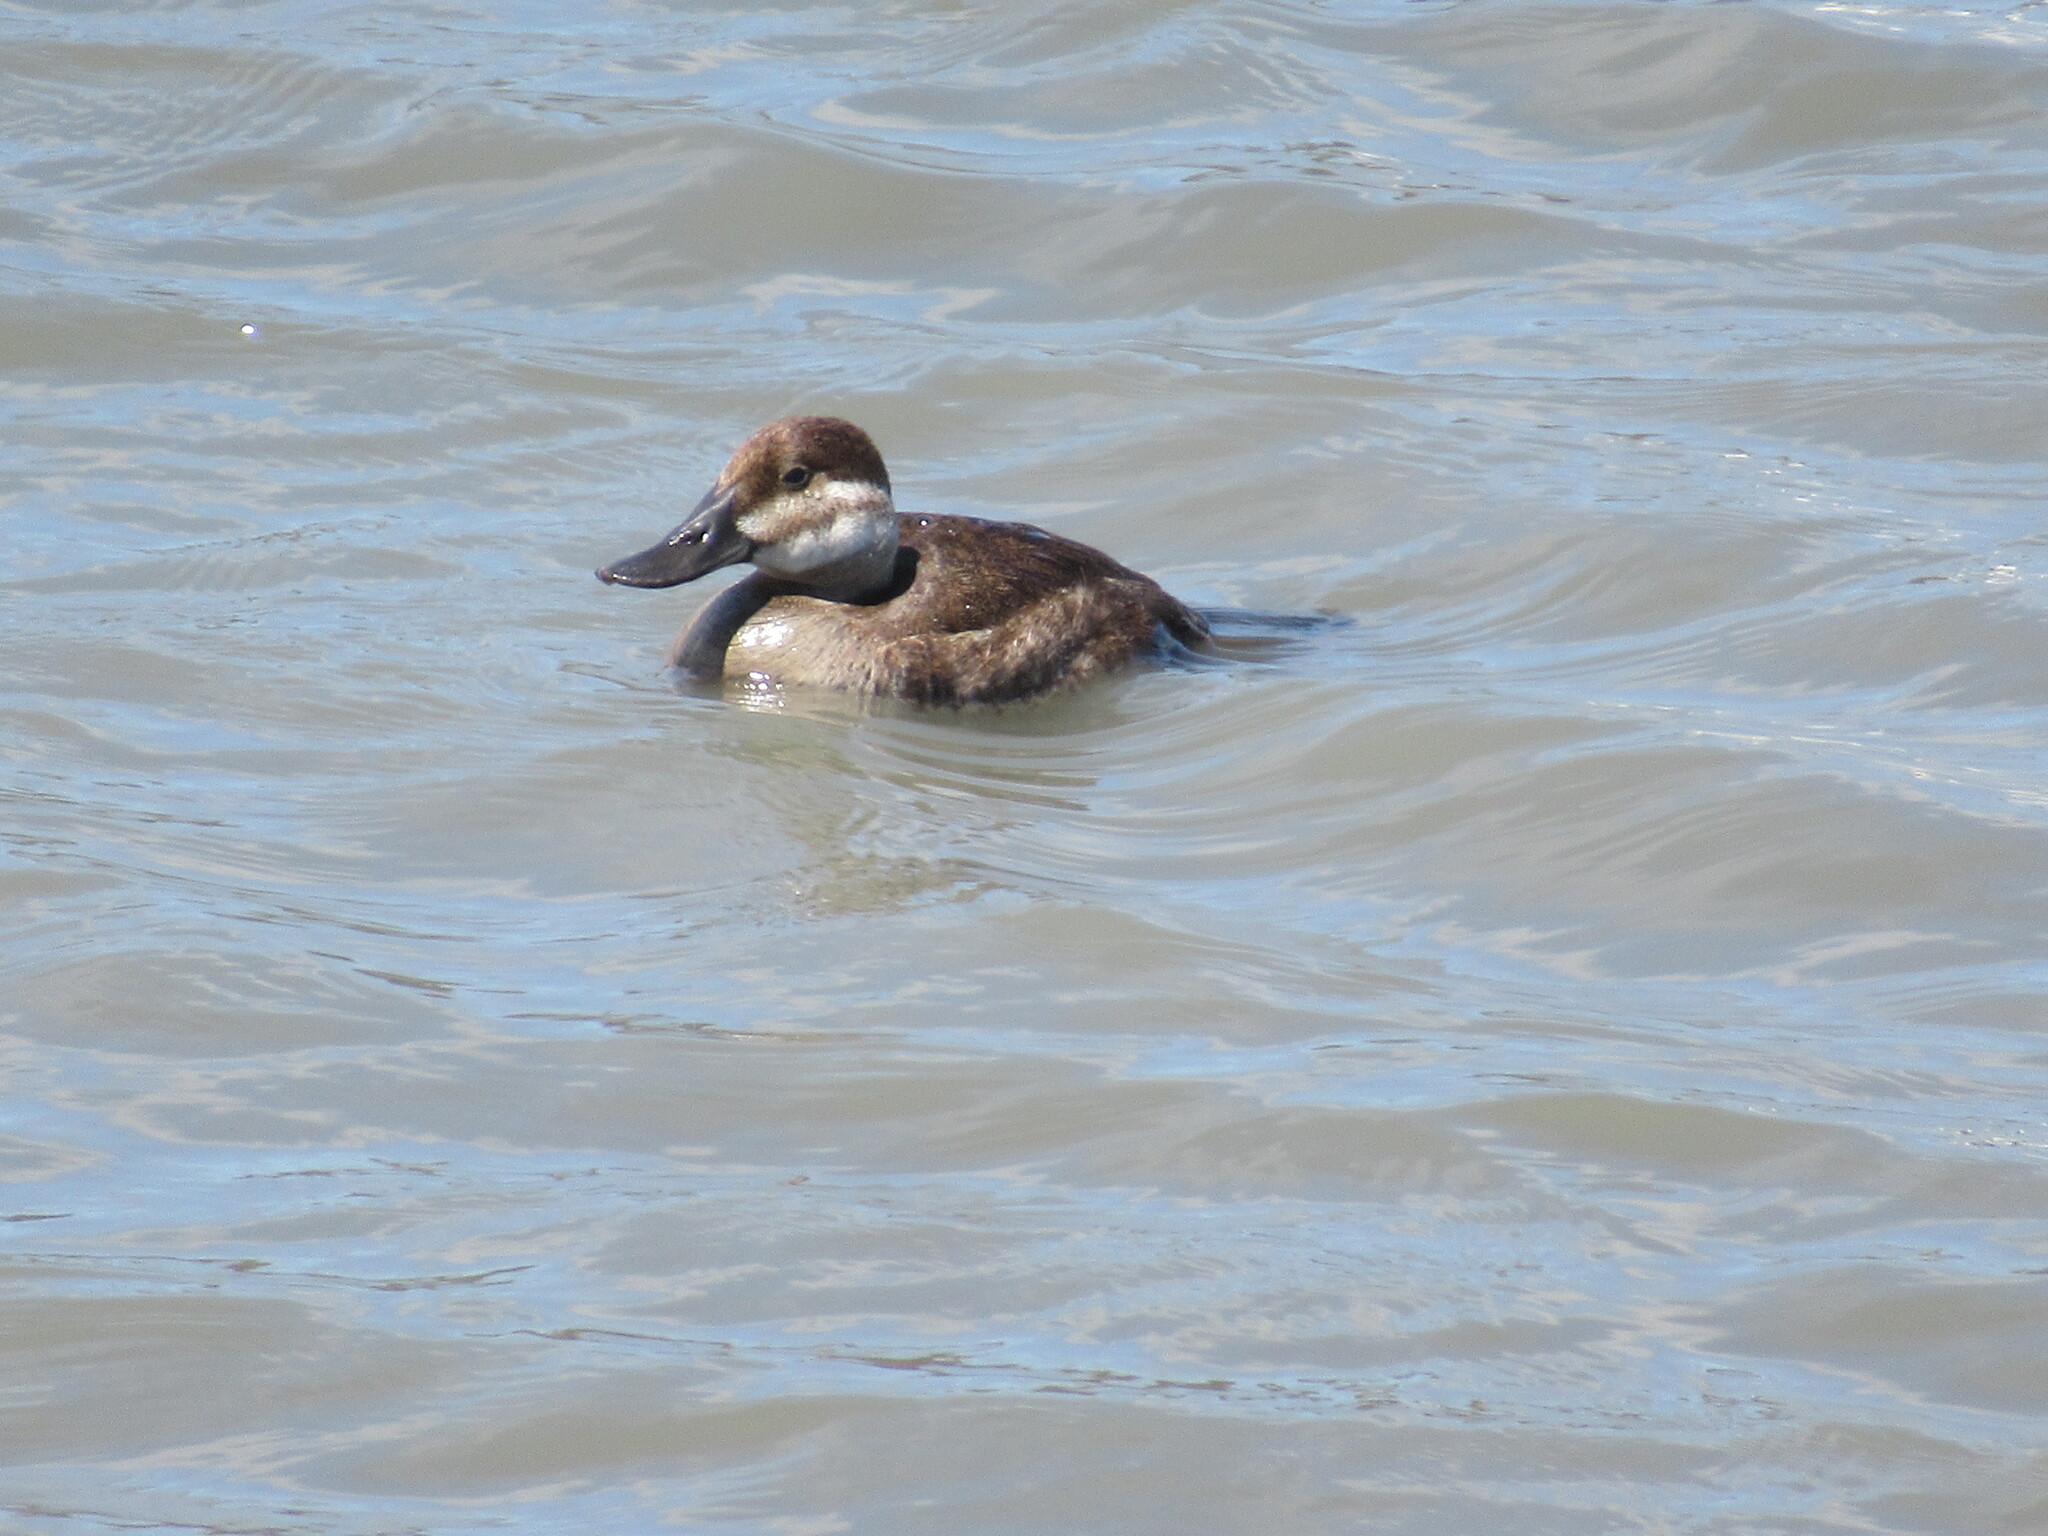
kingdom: Animalia
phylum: Chordata
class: Aves
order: Anseriformes
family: Anatidae
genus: Oxyura
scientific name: Oxyura jamaicensis
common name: Ruddy duck
